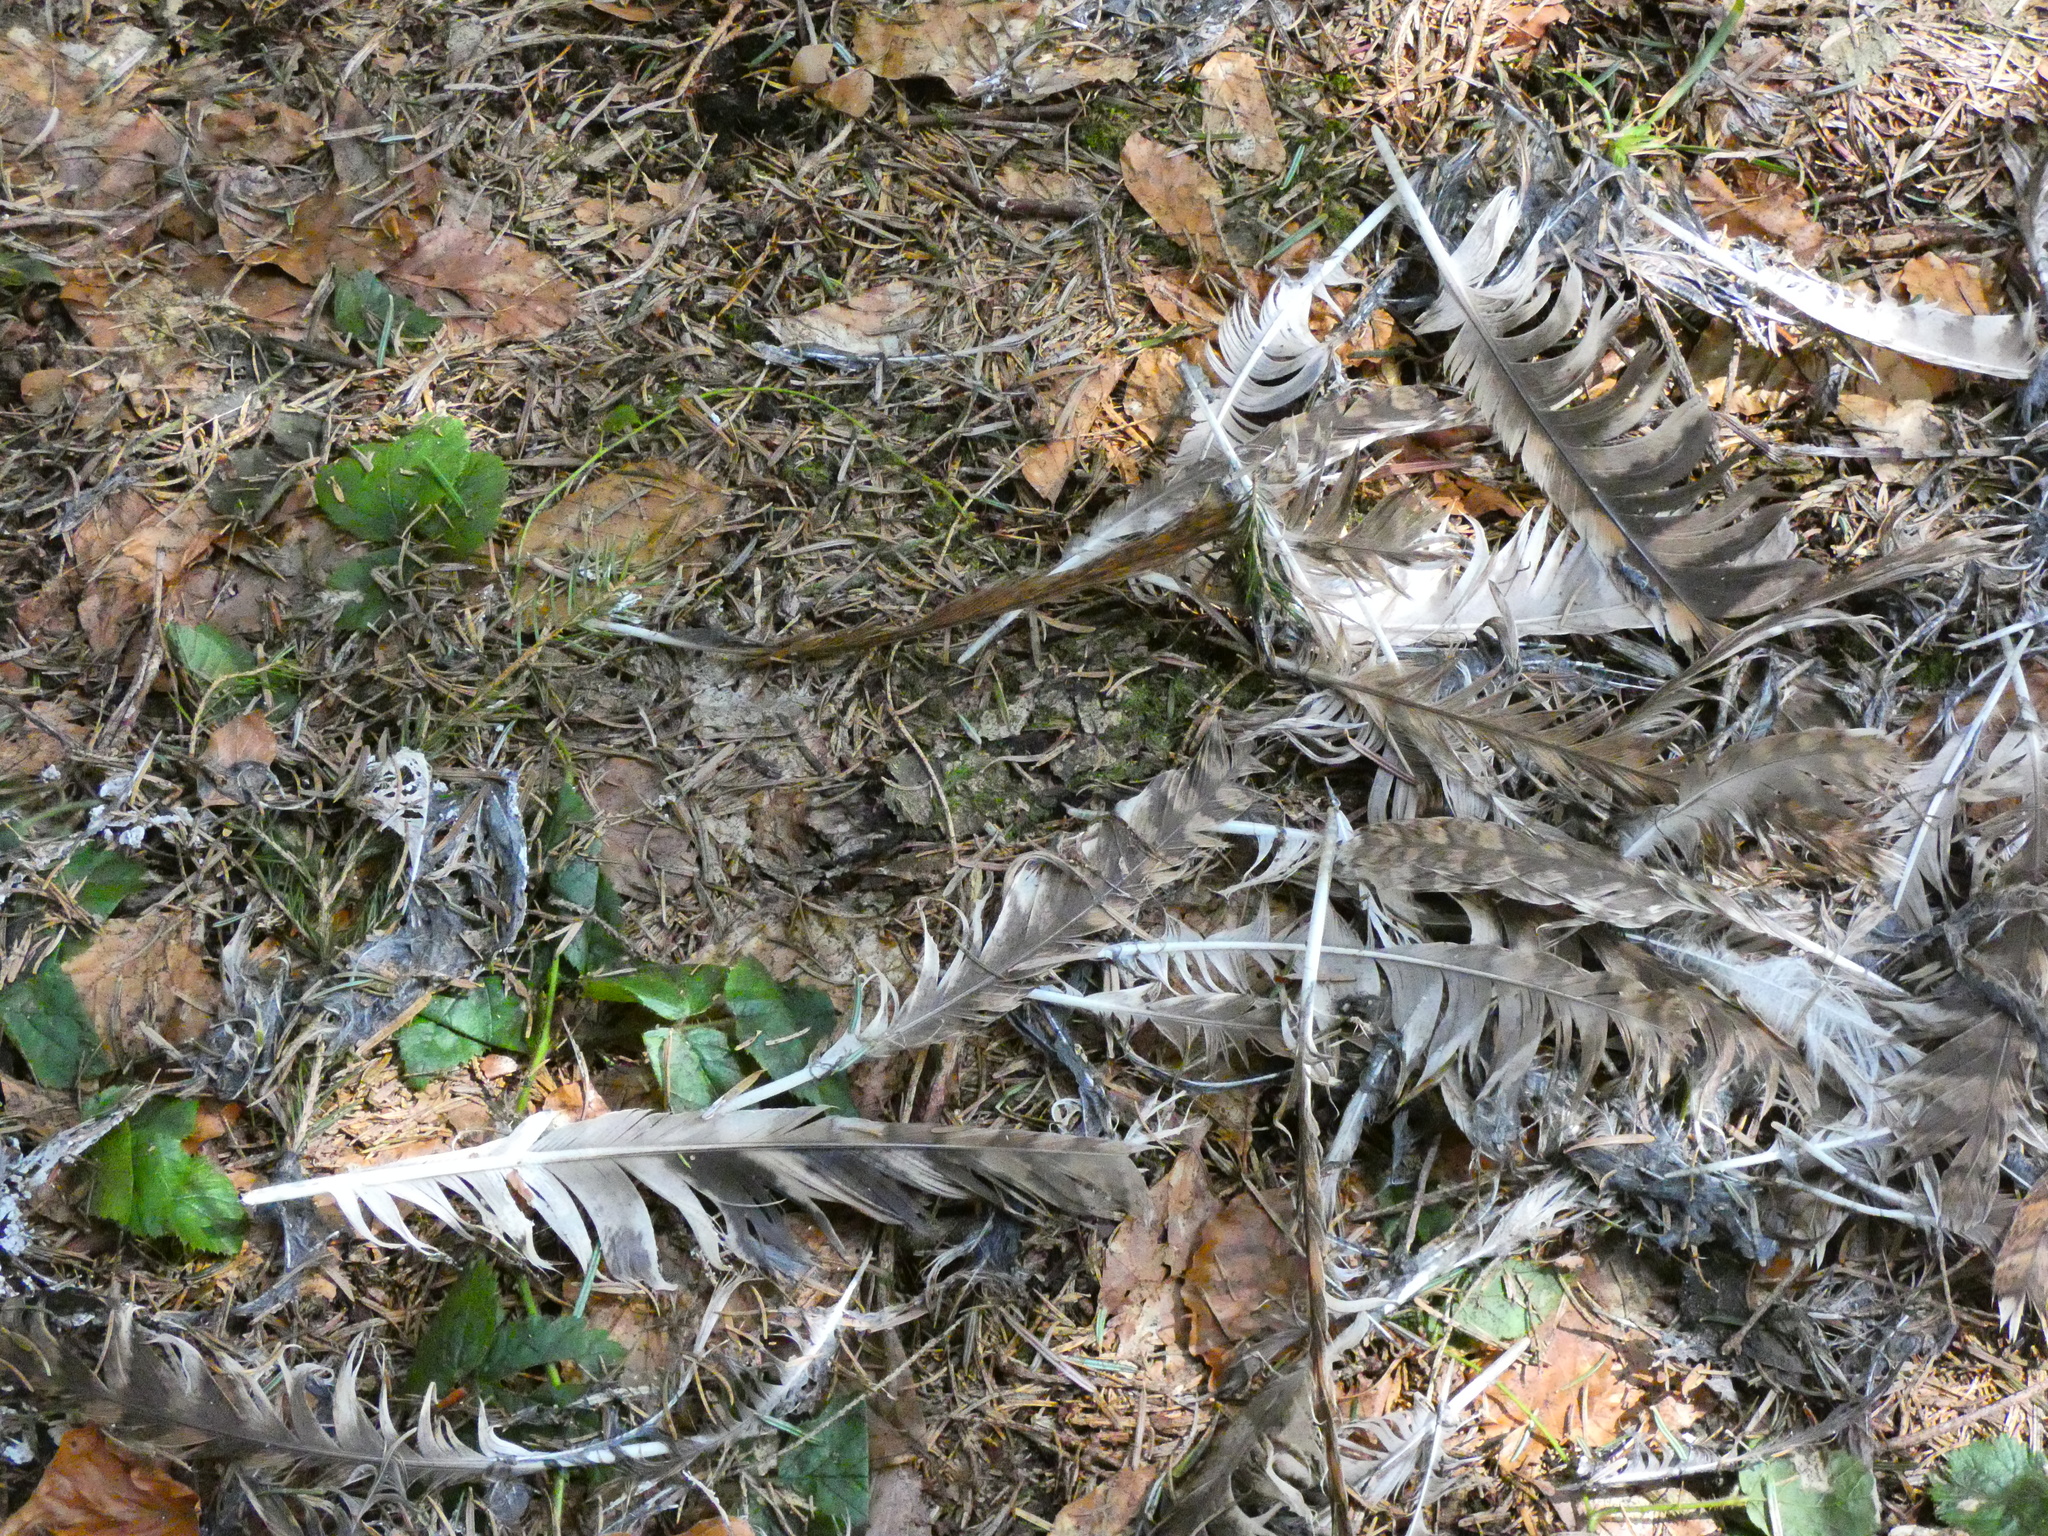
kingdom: Animalia
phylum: Chordata
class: Aves
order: Strigiformes
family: Strigidae
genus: Strix
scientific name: Strix aluco
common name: Tawny owl
